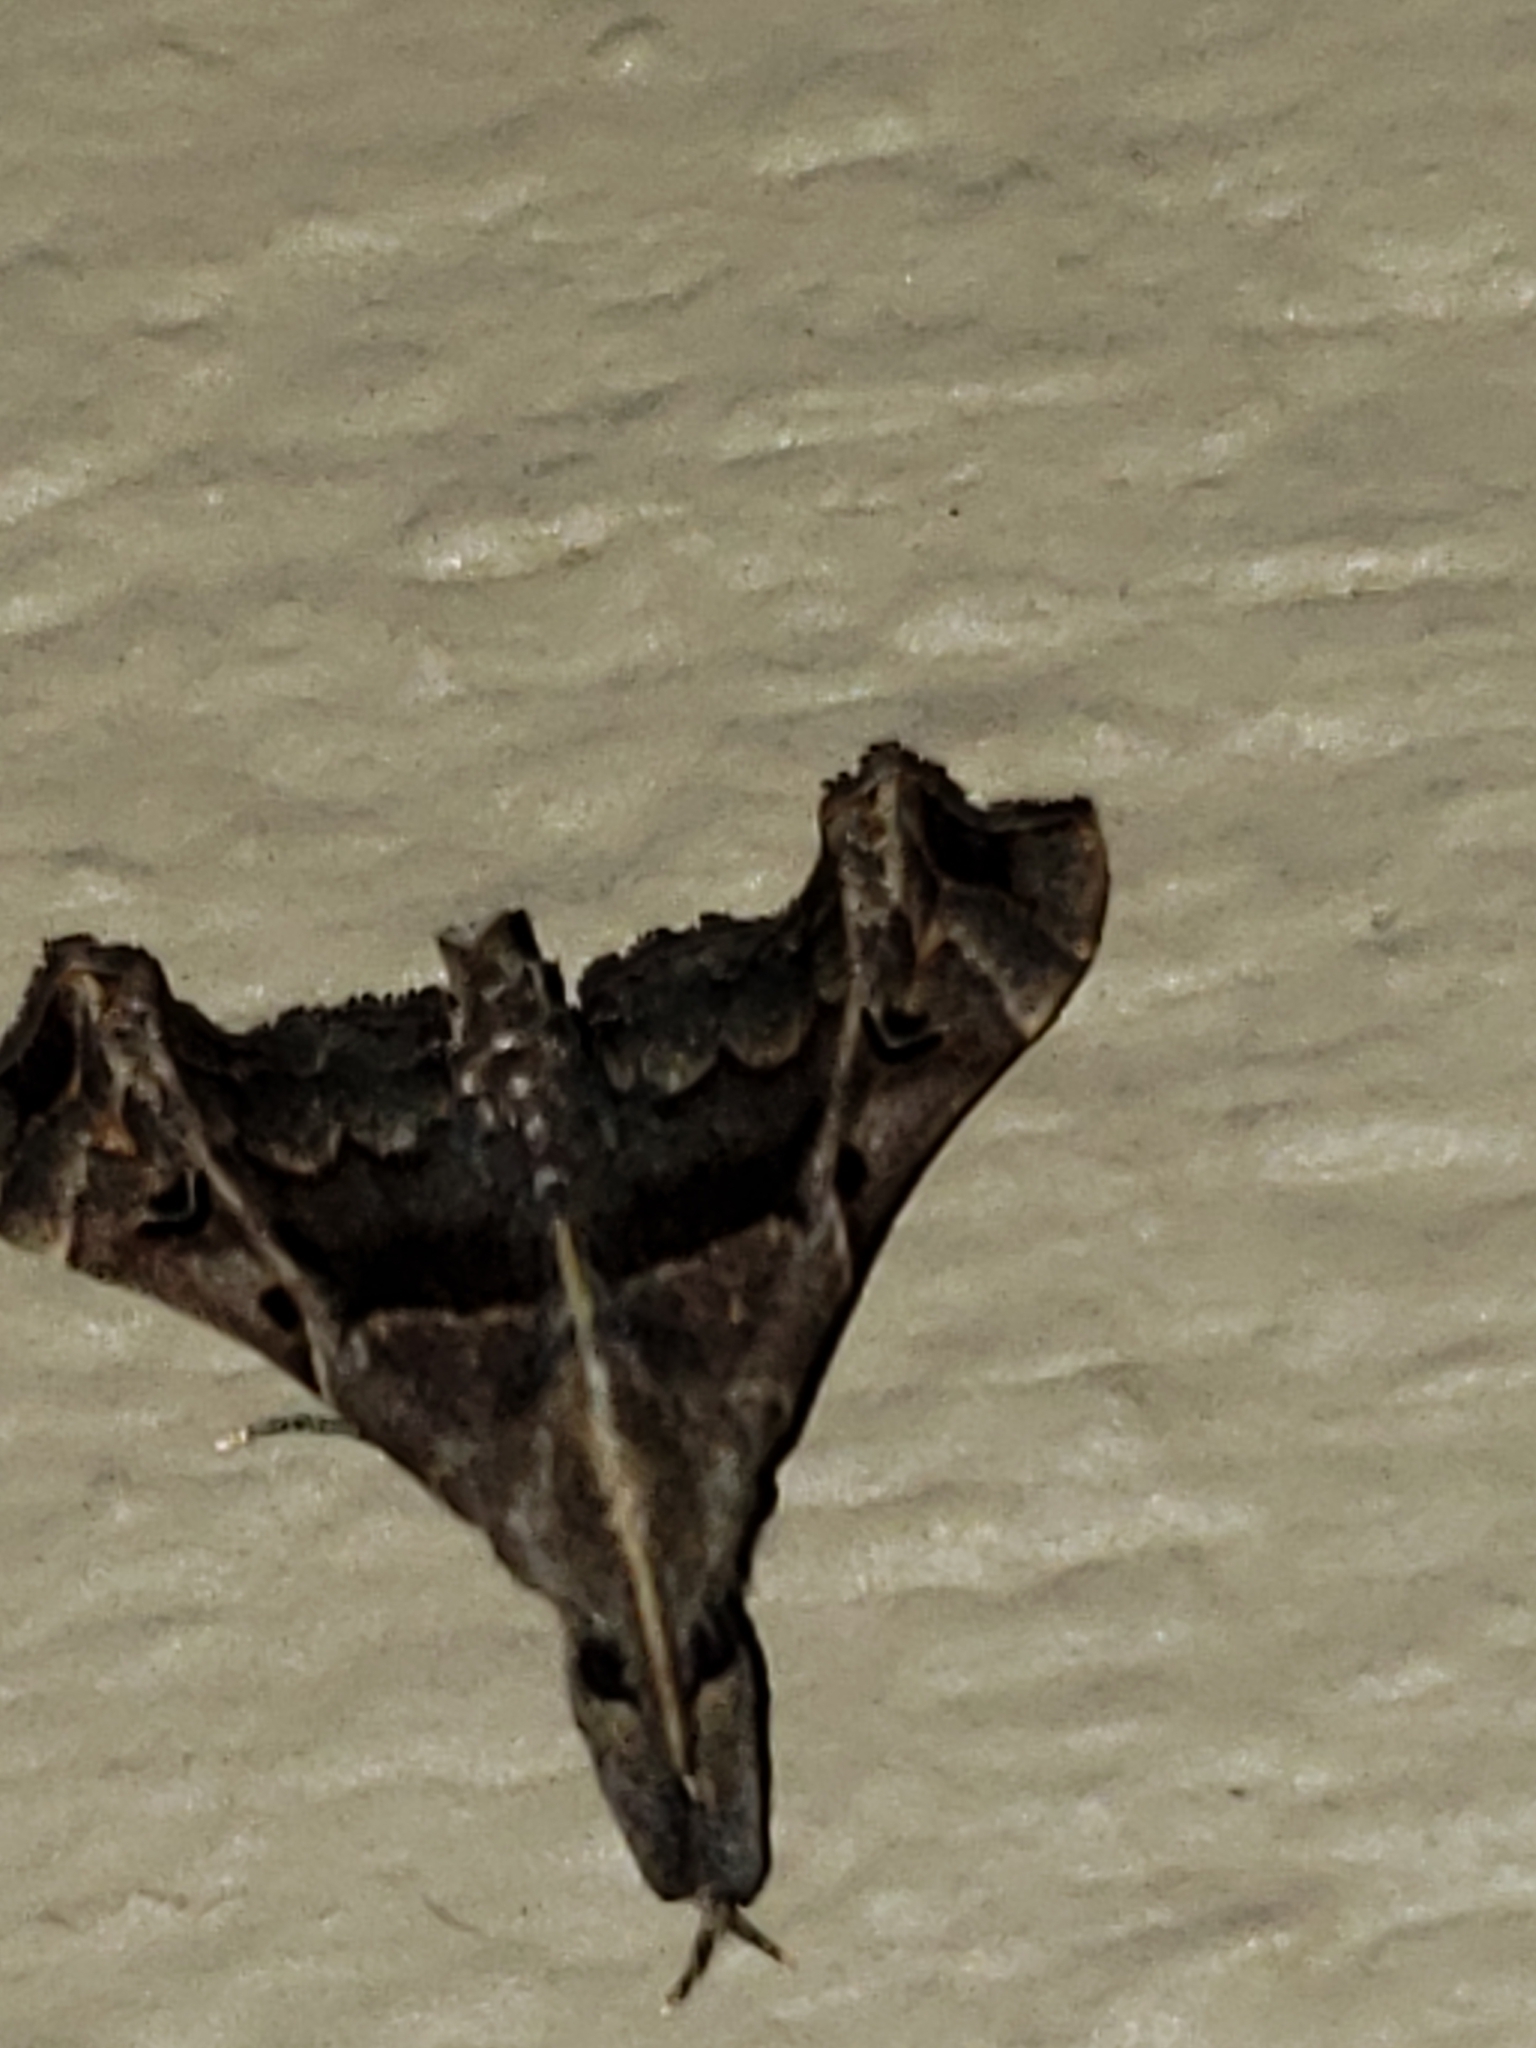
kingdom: Animalia
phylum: Arthropoda
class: Insecta
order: Lepidoptera
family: Erebidae
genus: Palthis
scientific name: Palthis asopialis
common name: Faint-spotted palthis moth
